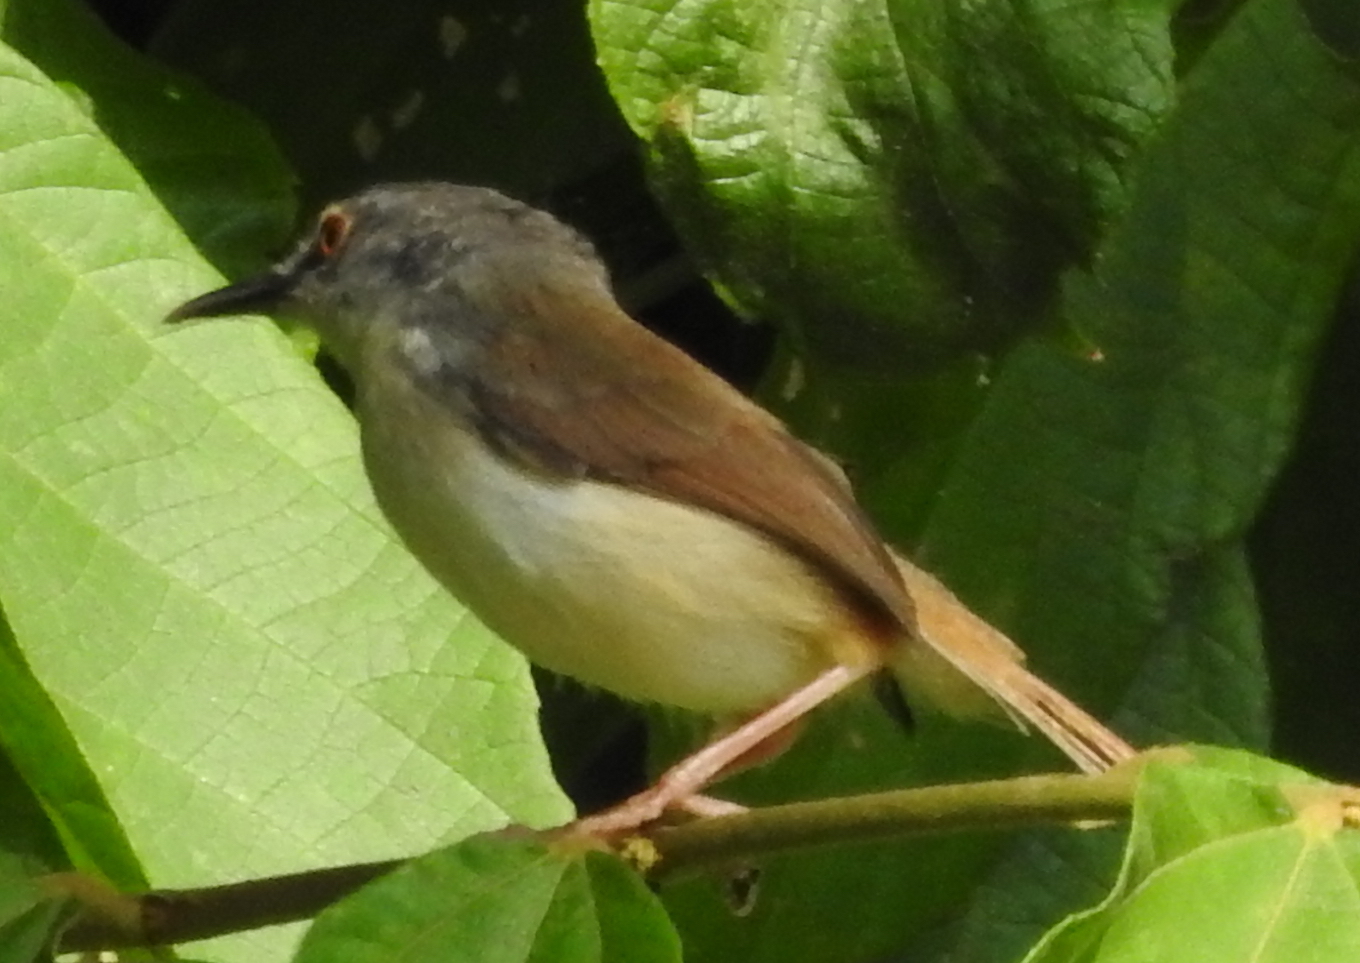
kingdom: Animalia
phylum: Chordata
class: Aves
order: Passeriformes
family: Cisticolidae
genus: Prinia
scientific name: Prinia rufescens
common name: Rufescent prinia
